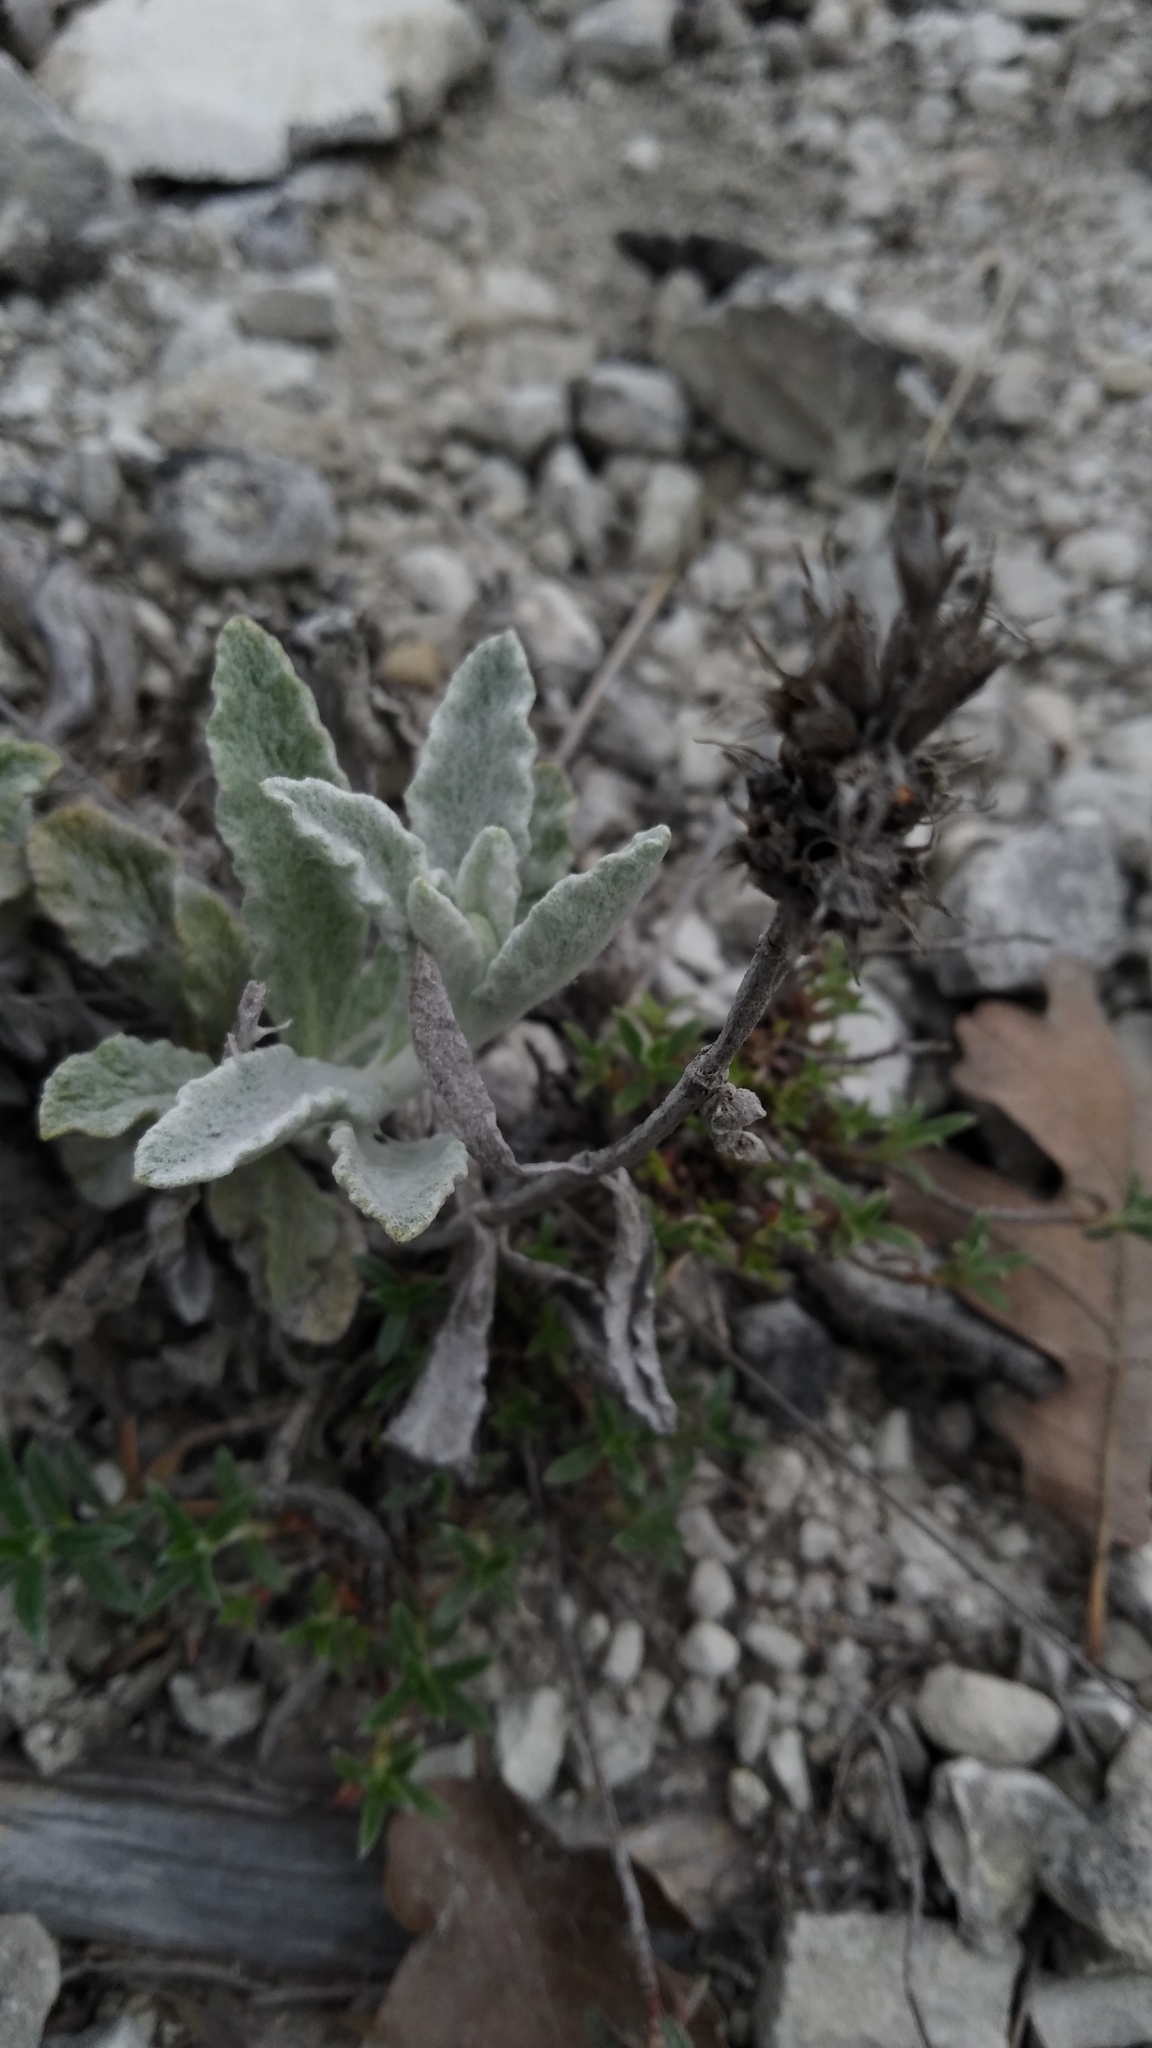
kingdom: Plantae
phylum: Tracheophyta
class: Magnoliopsida
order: Lamiales
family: Lamiaceae
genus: Sideritis
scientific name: Sideritis taurica
